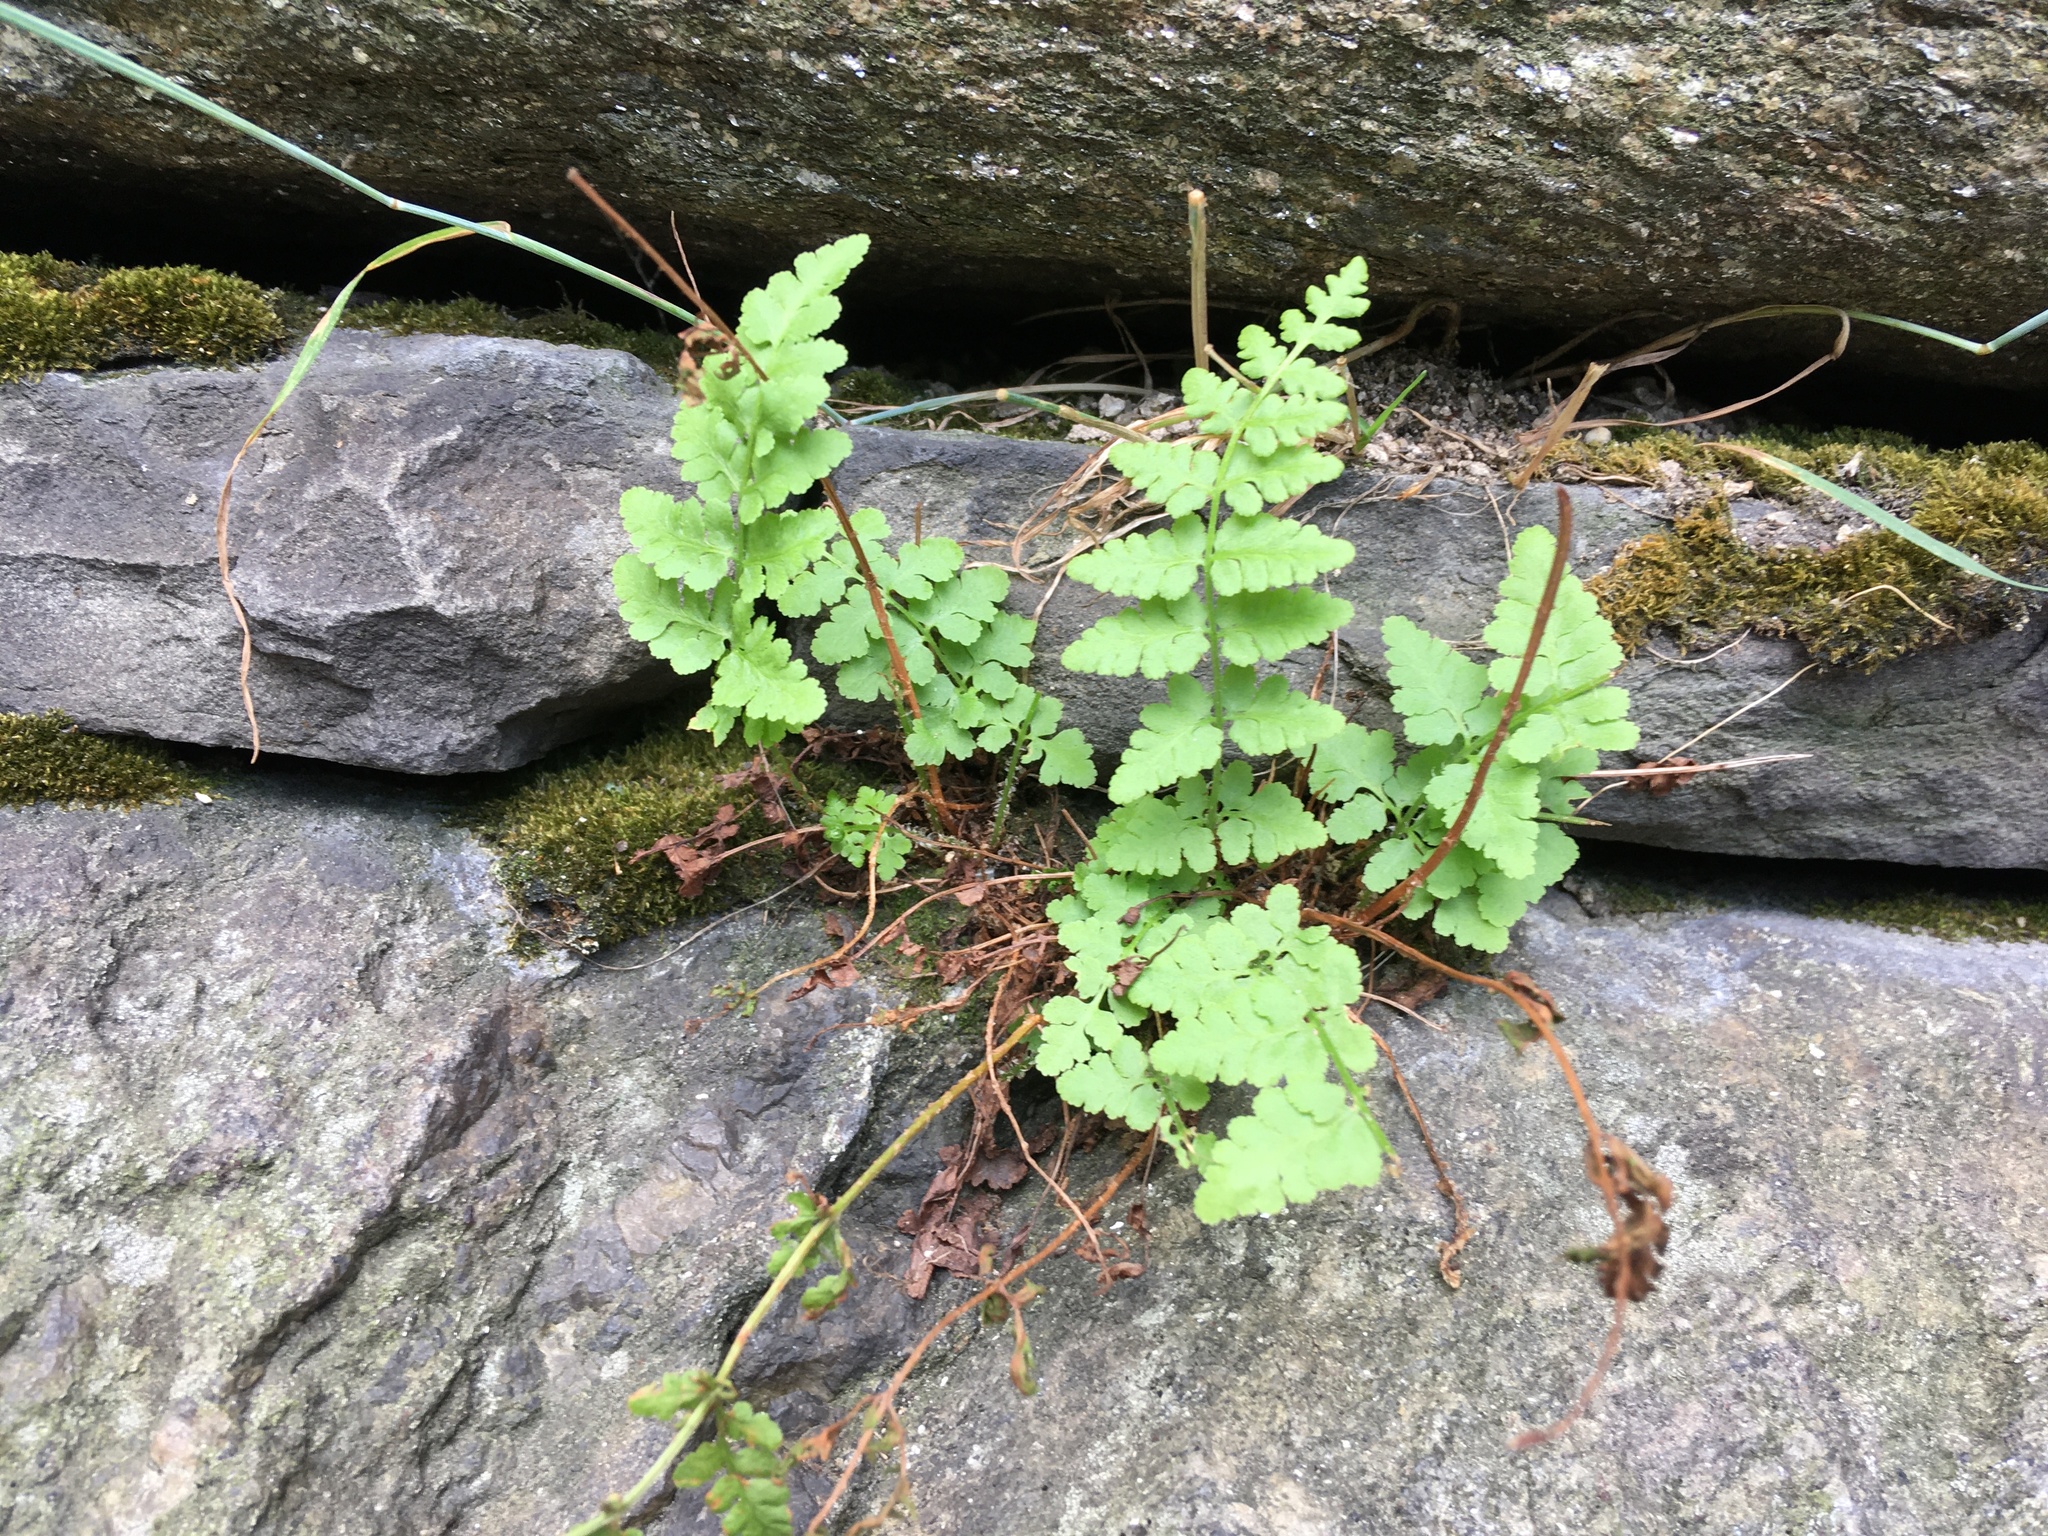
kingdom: Plantae
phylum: Tracheophyta
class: Polypodiopsida
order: Polypodiales
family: Woodsiaceae
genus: Physematium
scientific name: Physematium obtusum
